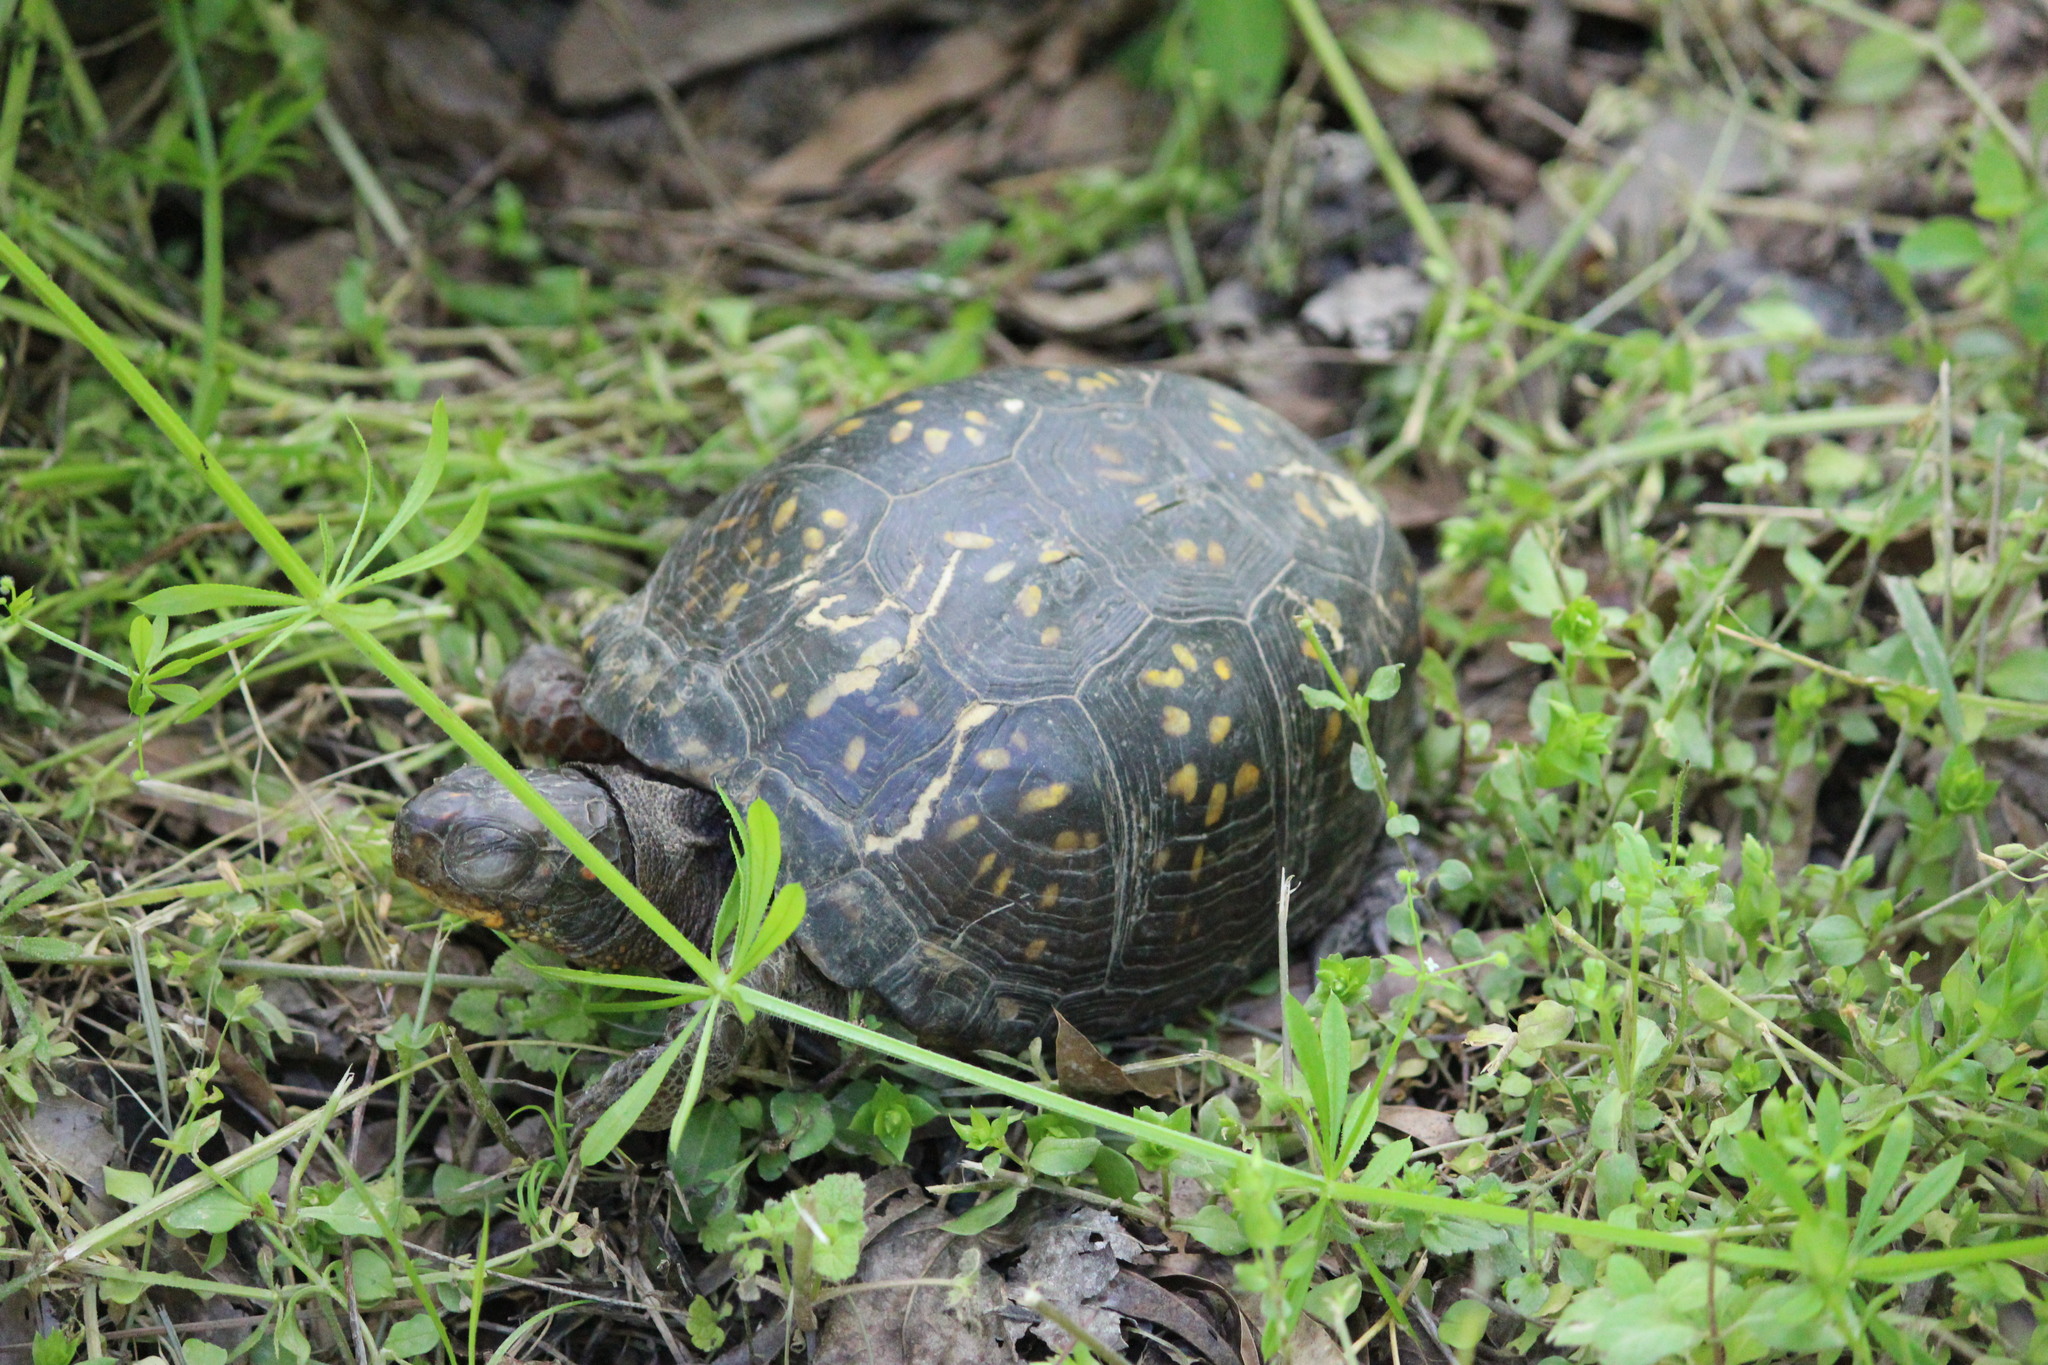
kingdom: Animalia
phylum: Chordata
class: Testudines
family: Emydidae
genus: Terrapene
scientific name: Terrapene carolina
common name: Common box turtle
